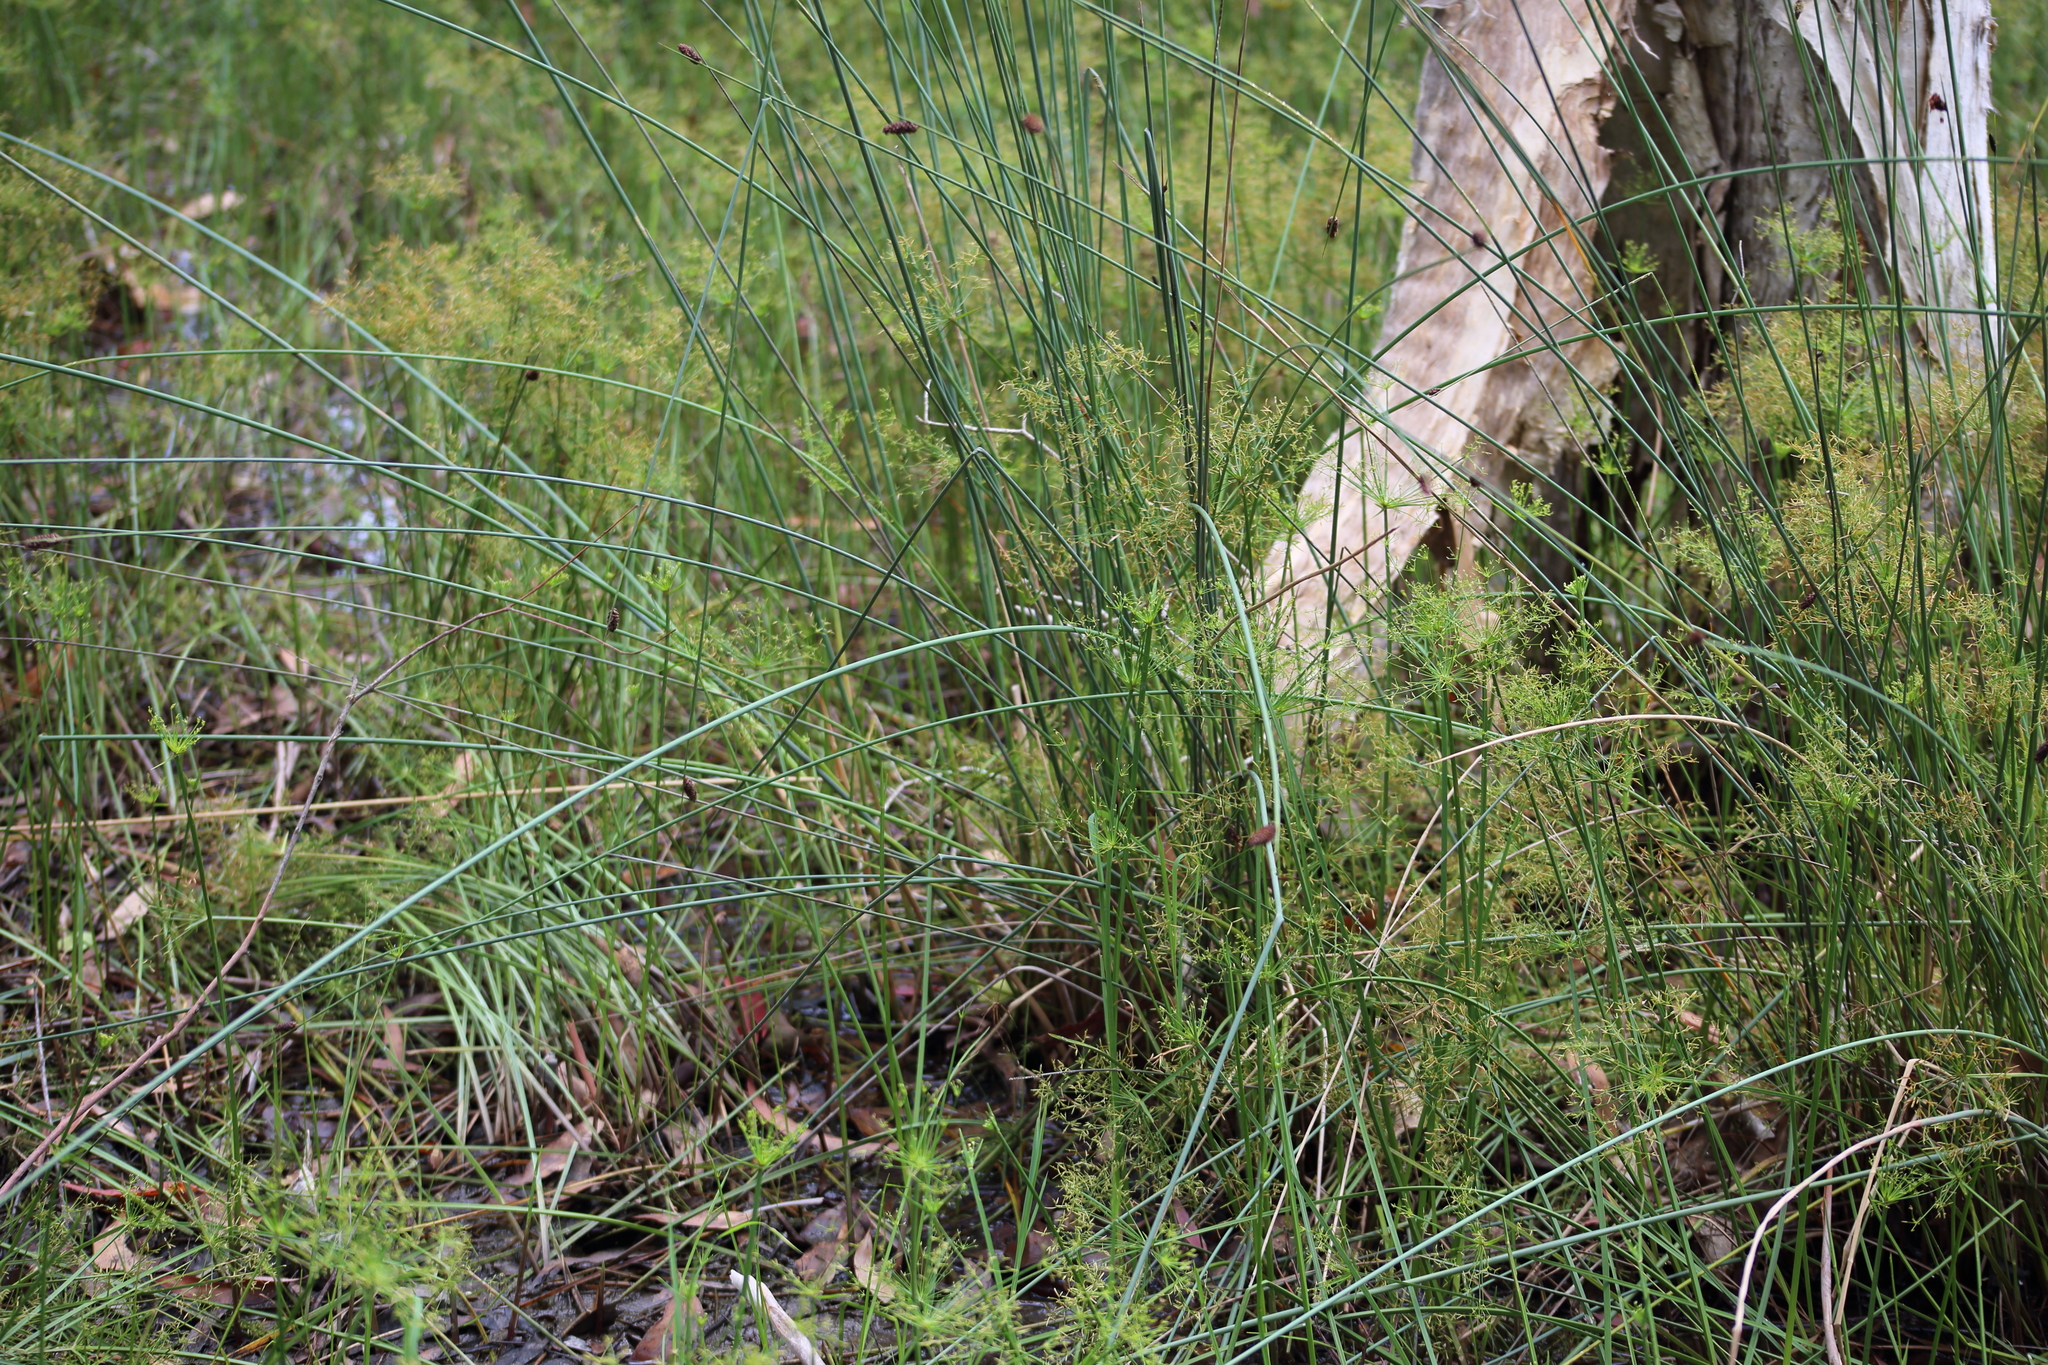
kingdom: Plantae
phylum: Tracheophyta
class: Liliopsida
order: Poales
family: Cyperaceae
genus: Lepironia
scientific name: Lepironia articulata
